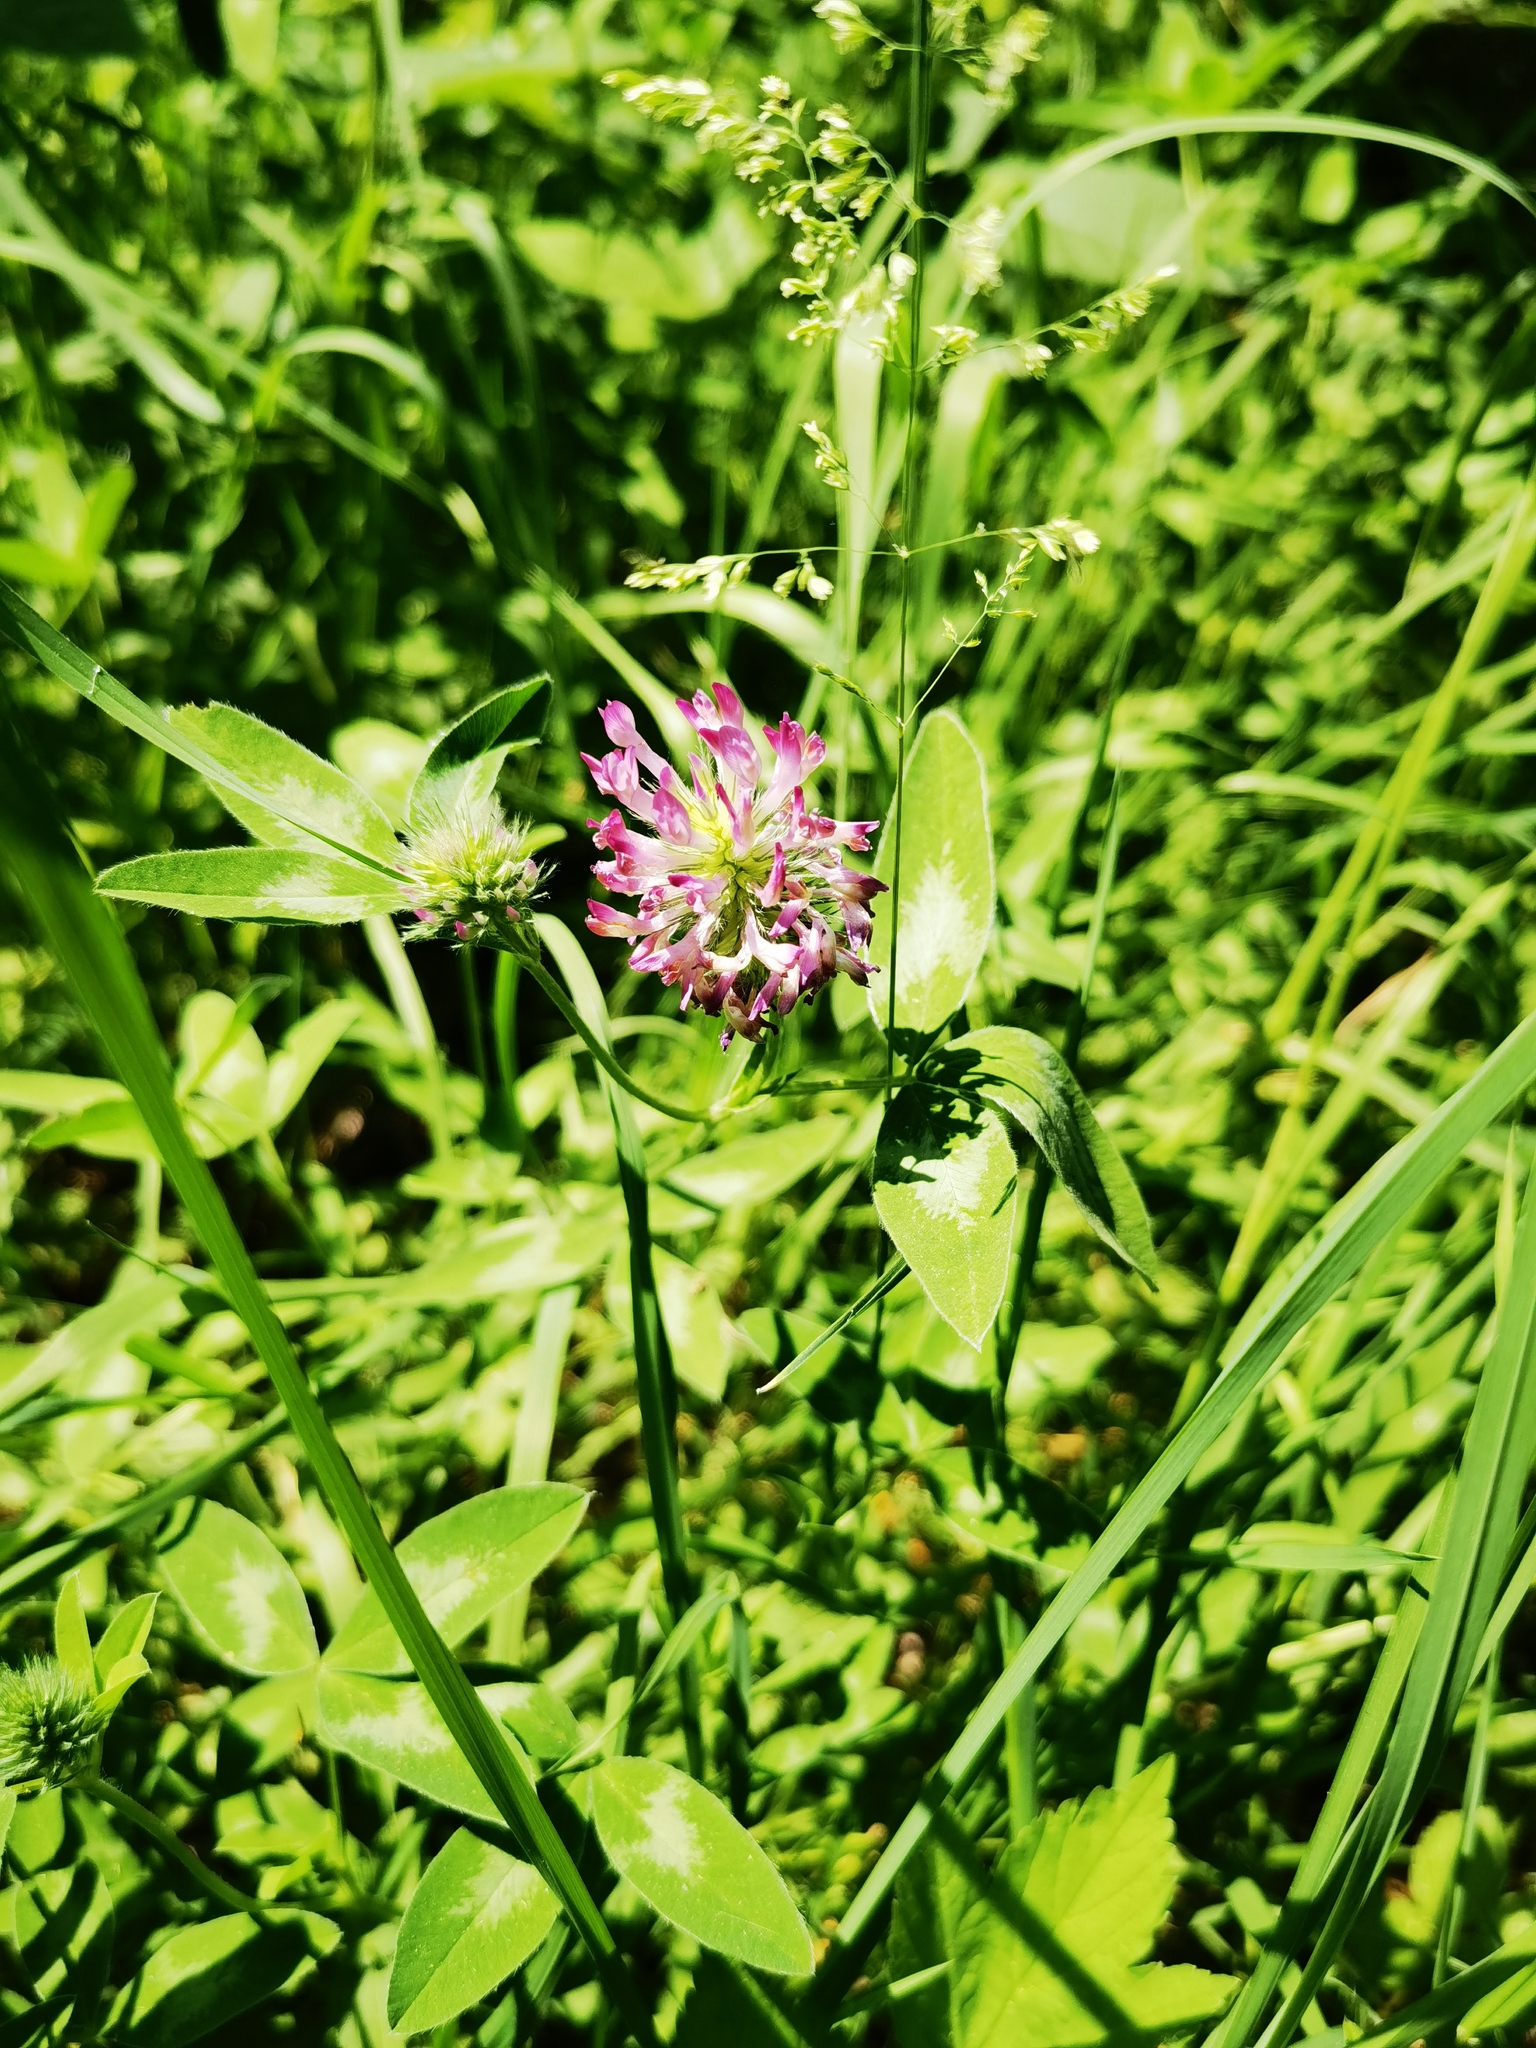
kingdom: Plantae
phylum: Tracheophyta
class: Magnoliopsida
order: Fabales
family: Fabaceae
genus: Trifolium
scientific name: Trifolium medium
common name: Zigzag clover
